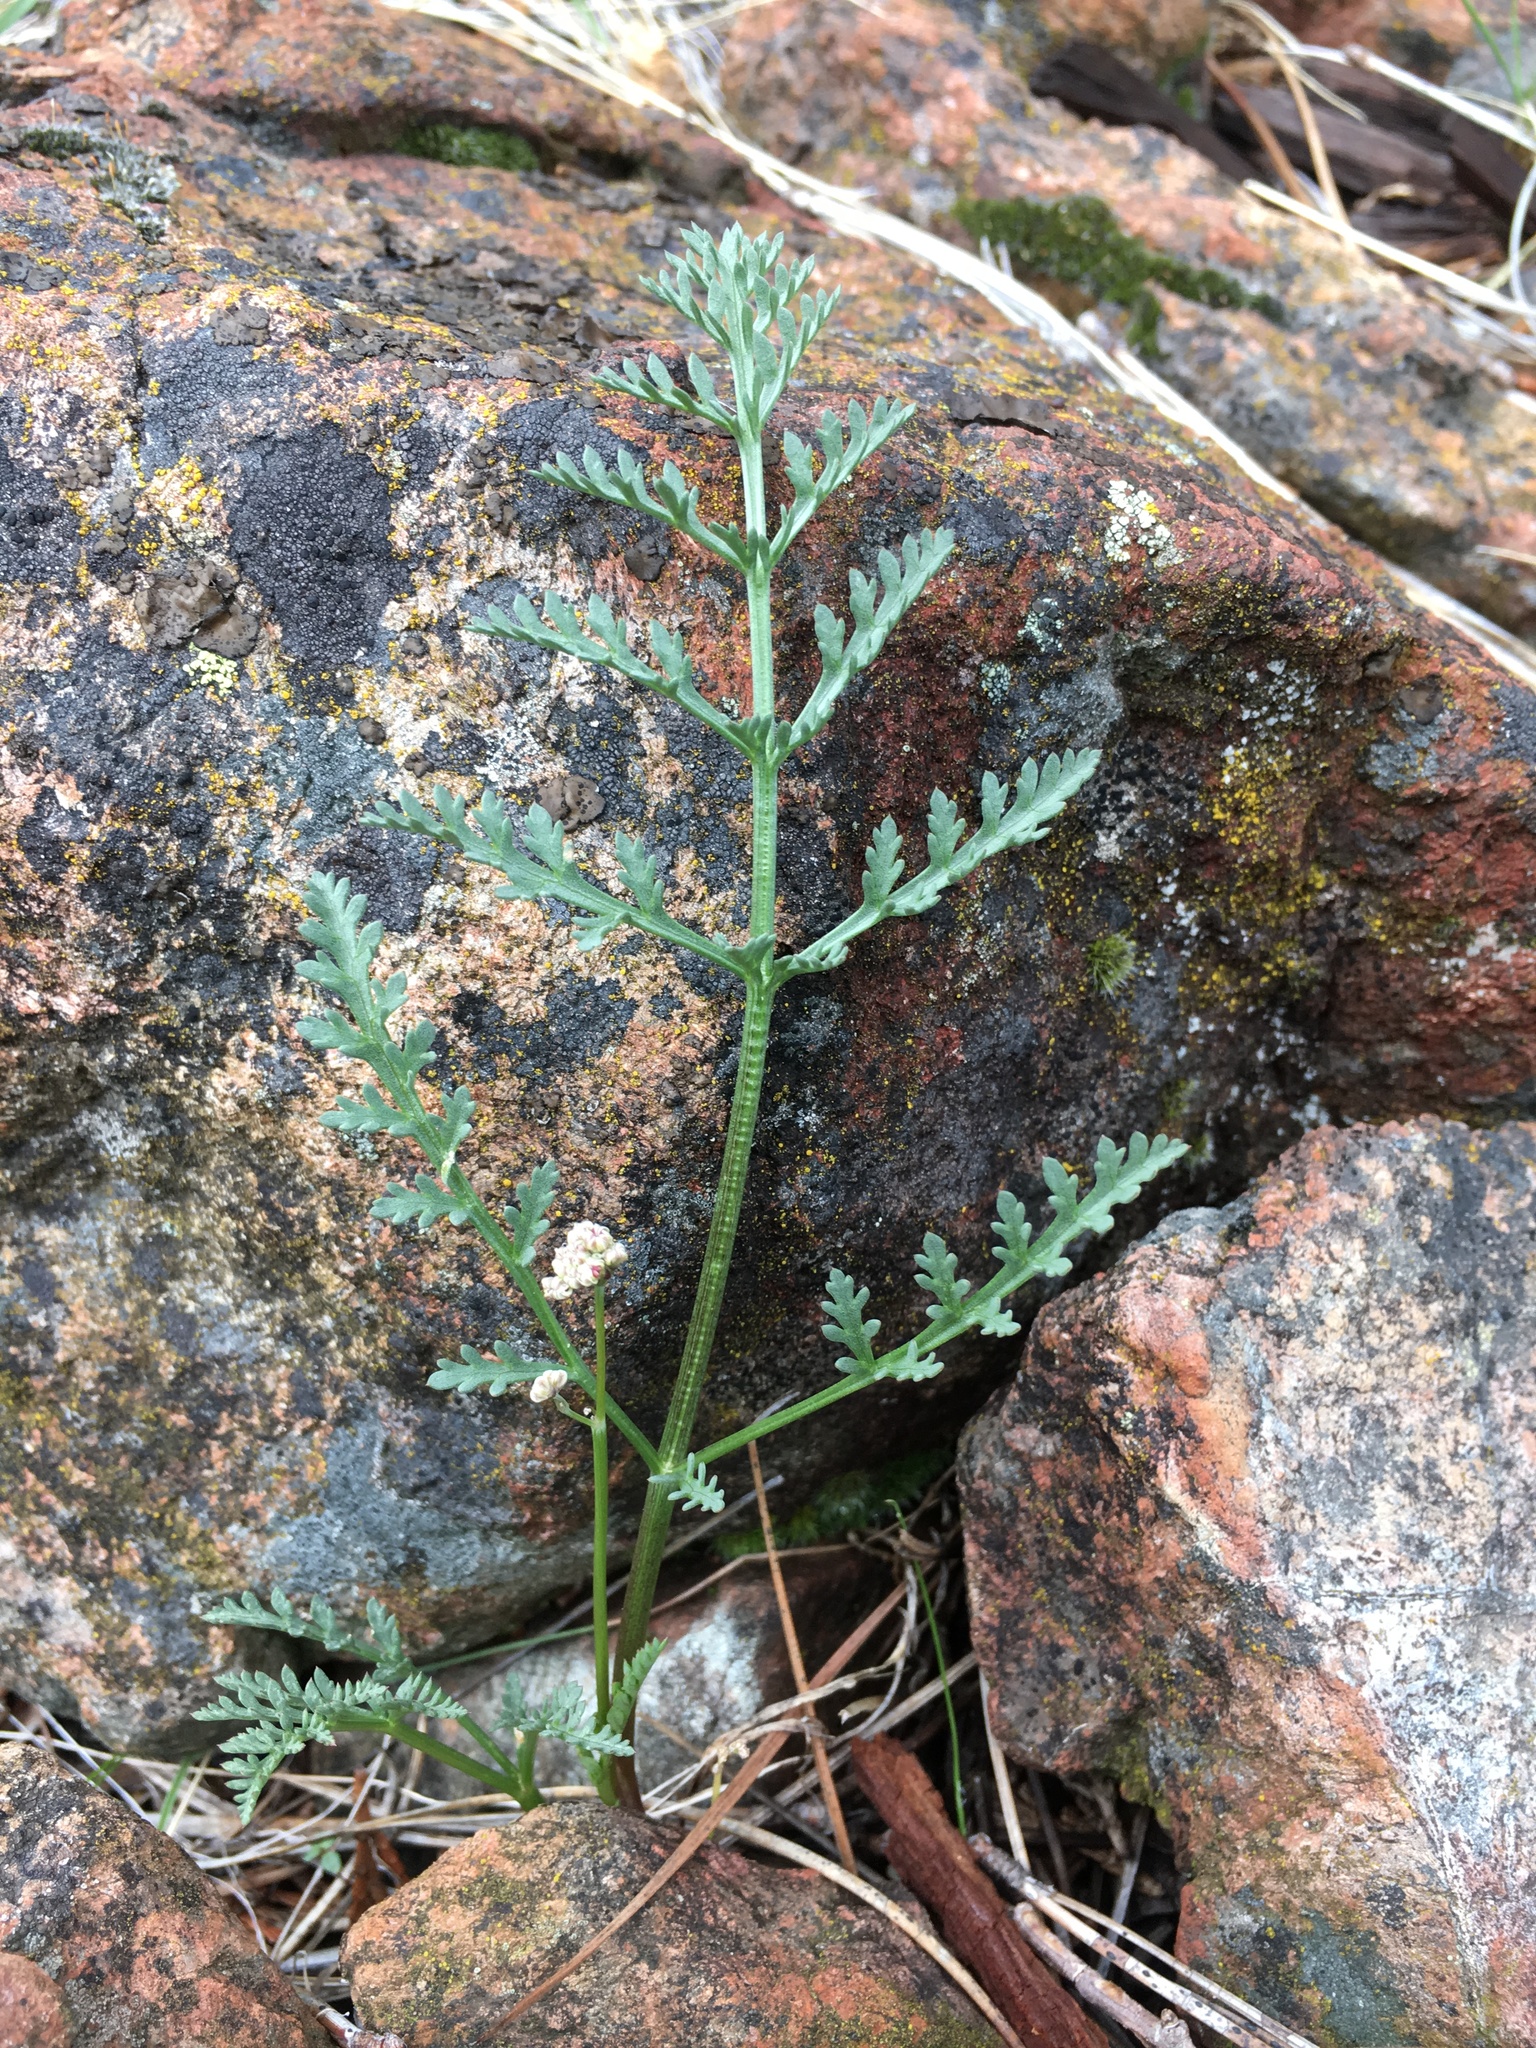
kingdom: Plantae
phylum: Tracheophyta
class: Magnoliopsida
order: Apiales
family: Apiaceae
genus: Lomatium
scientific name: Lomatium tracyi
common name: Tracy's desert-parsley
